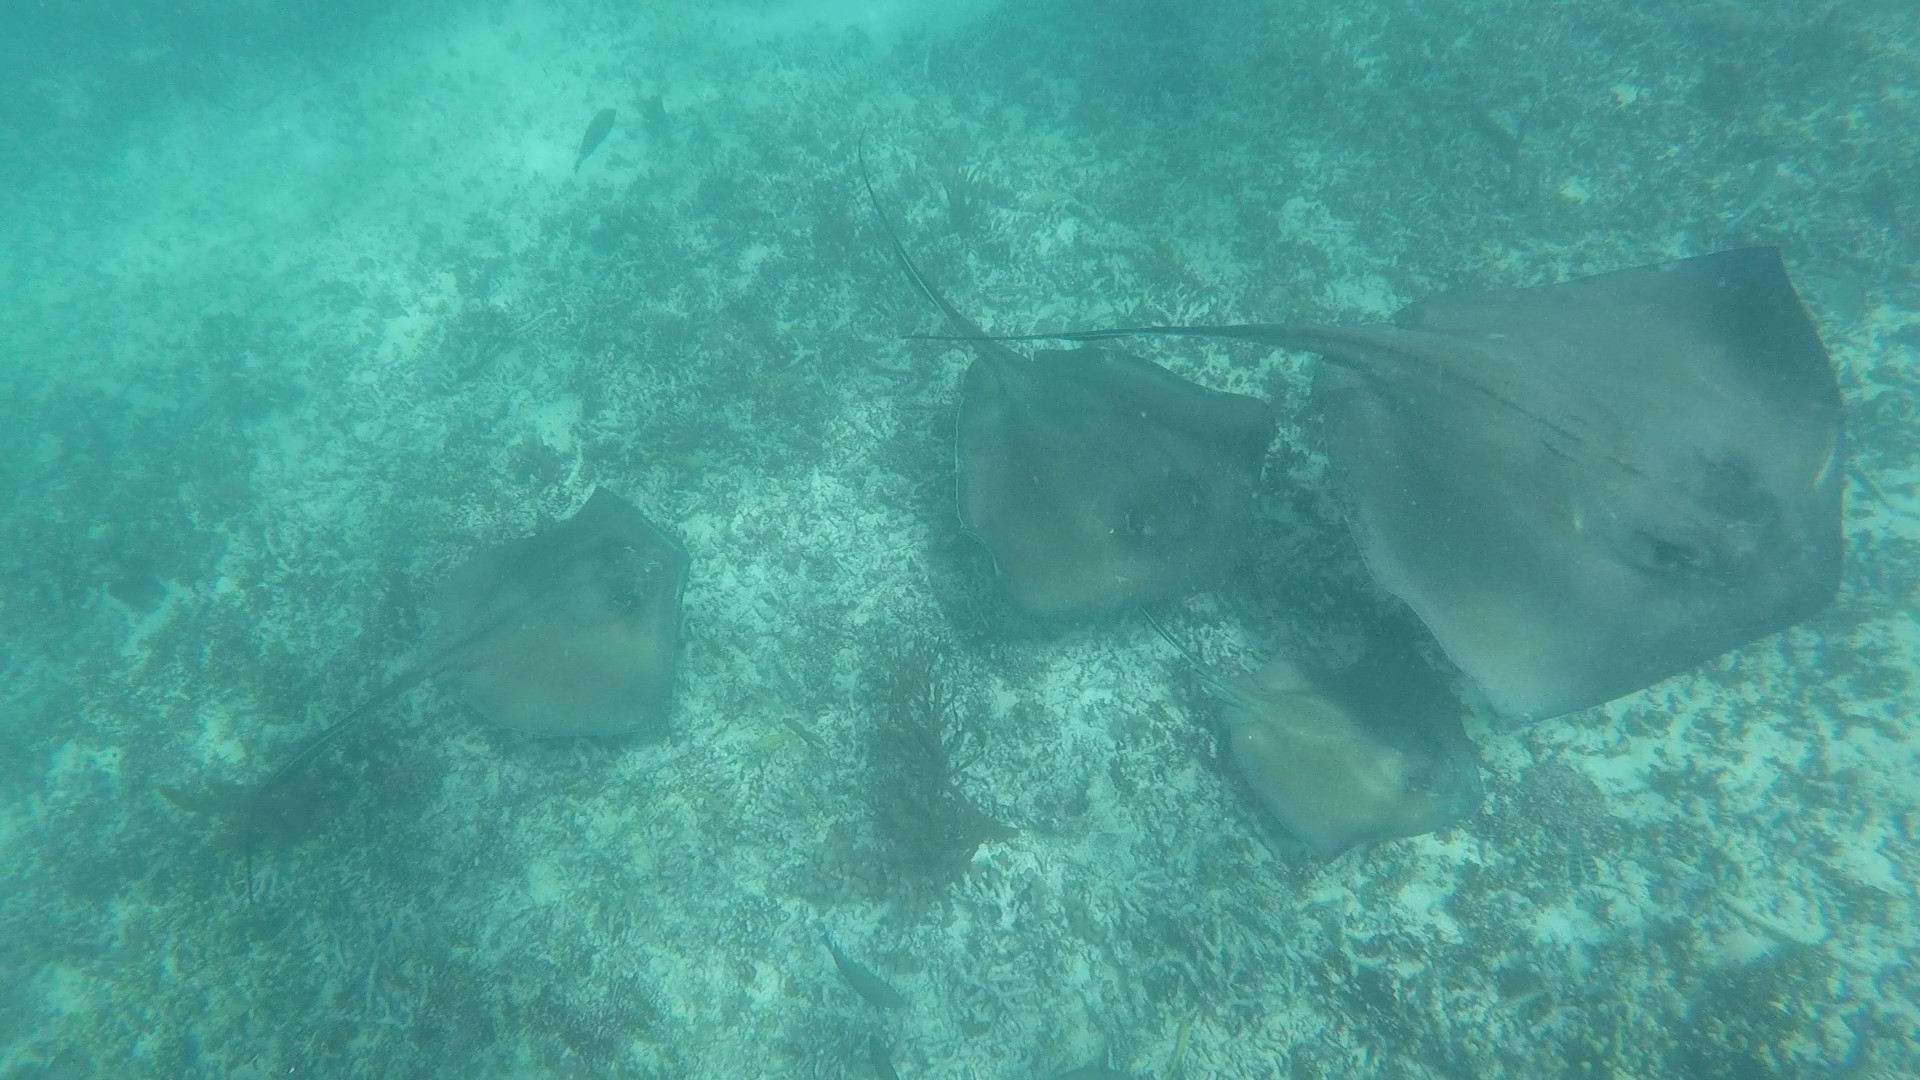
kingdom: Animalia
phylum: Chordata
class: Elasmobranchii
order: Myliobatiformes
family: Dasyatidae
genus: Hypanus
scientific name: Hypanus americanus
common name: Southern stingray
